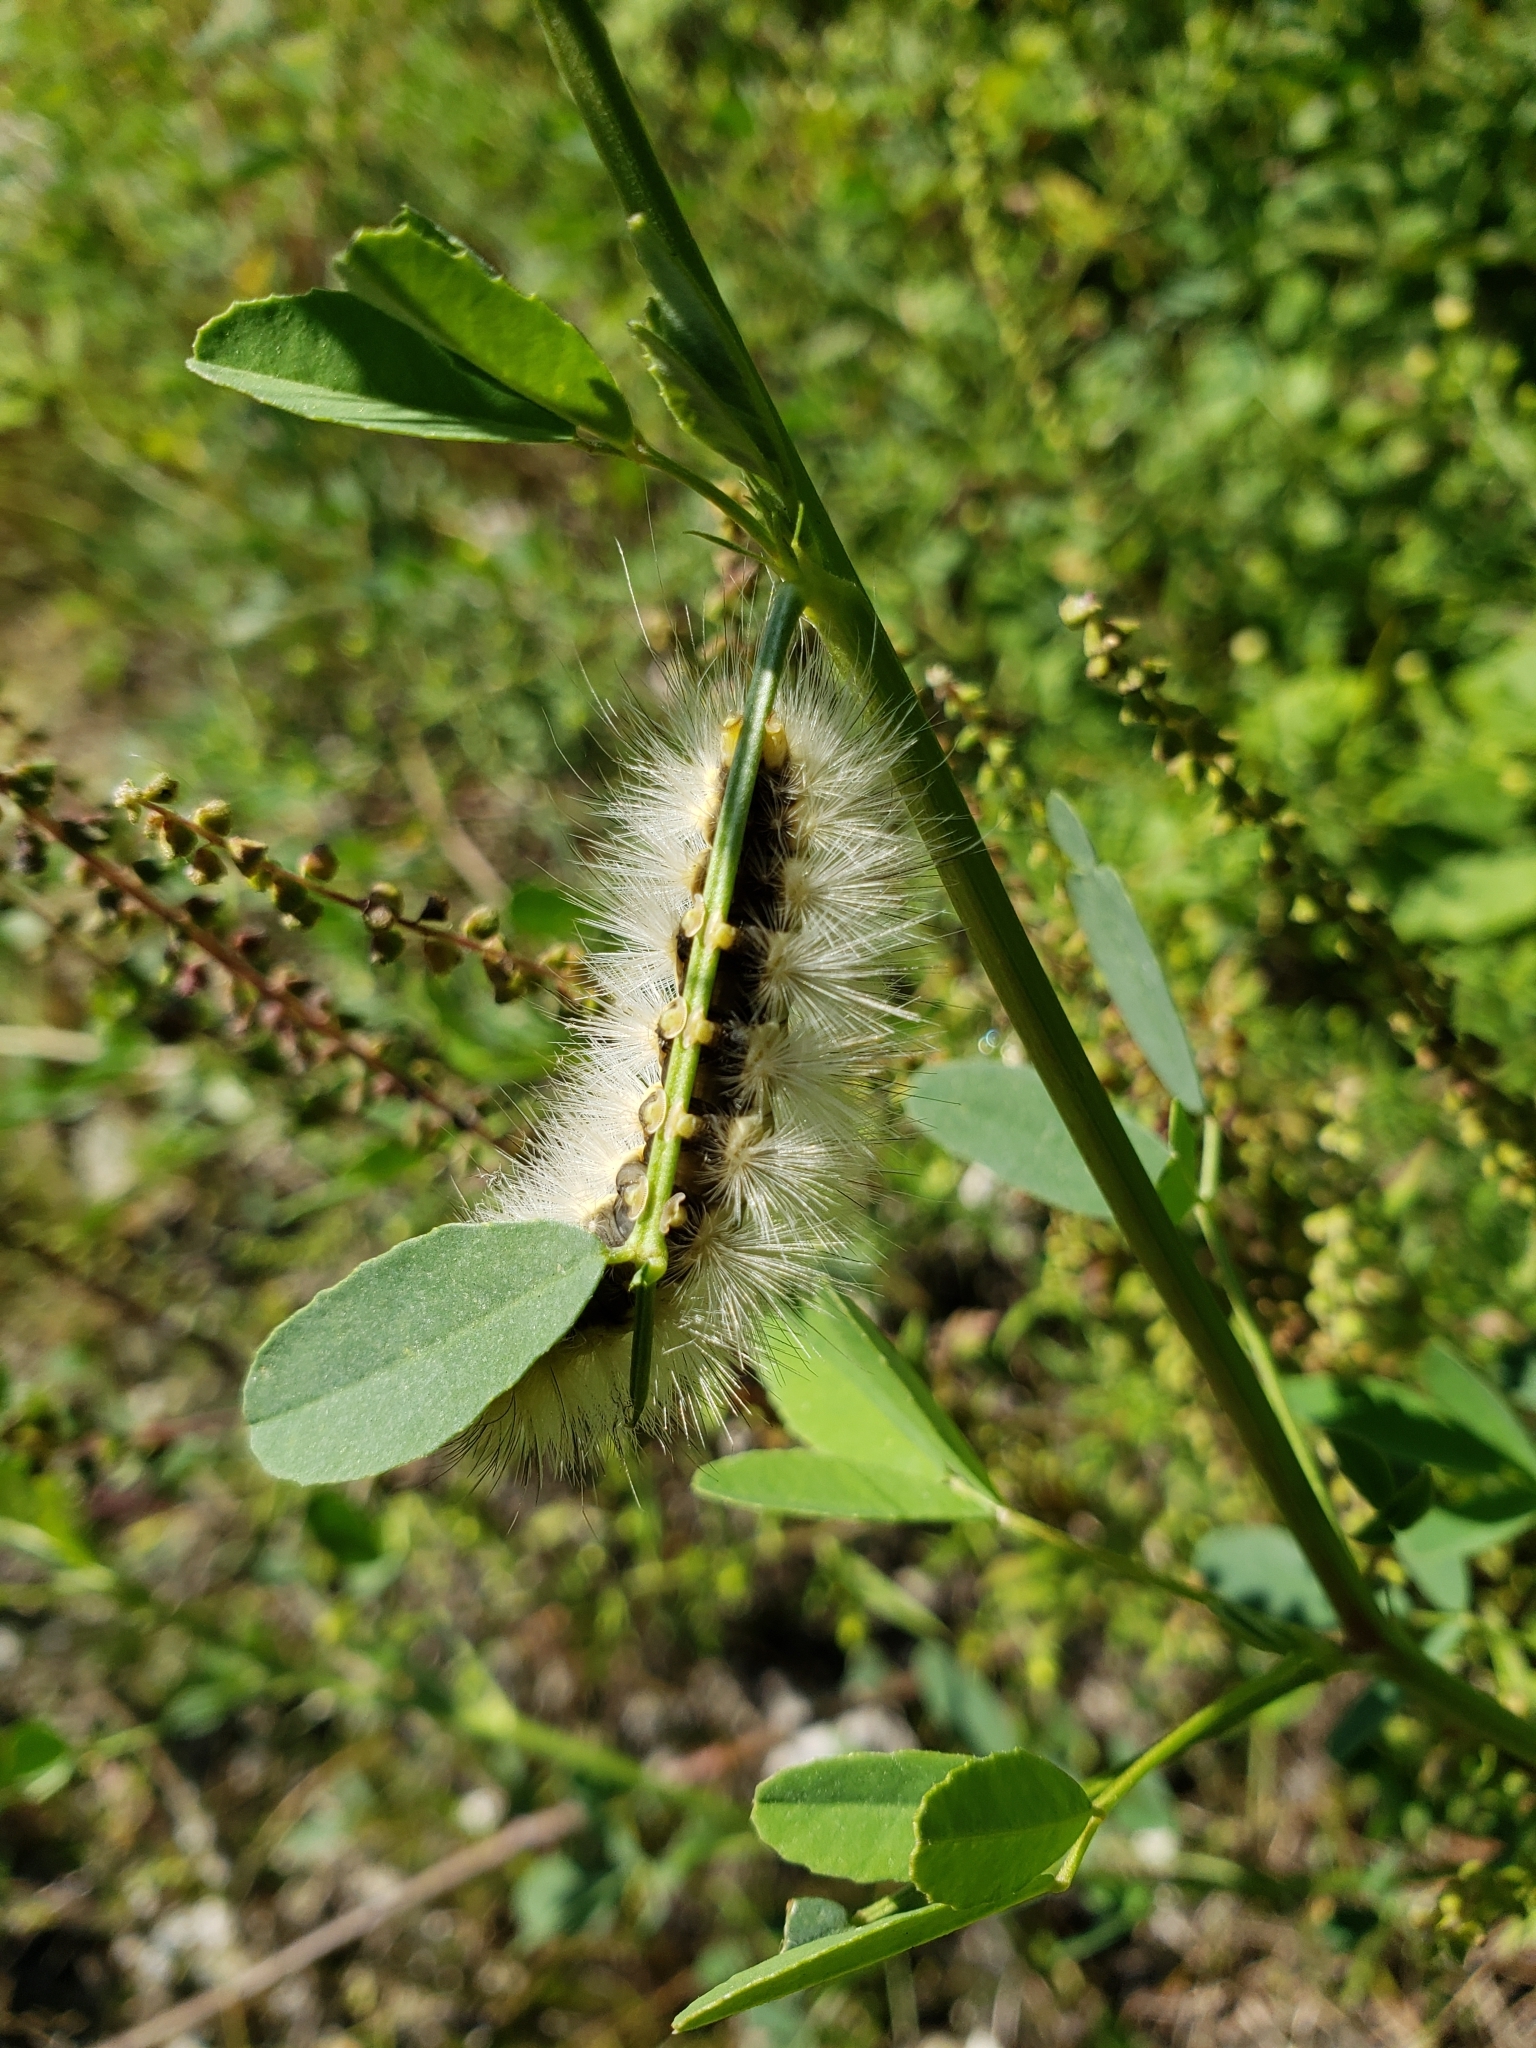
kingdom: Animalia
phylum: Arthropoda
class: Insecta
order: Lepidoptera
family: Erebidae
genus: Spilosoma
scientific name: Spilosoma virginica
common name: Virginia tiger moth
